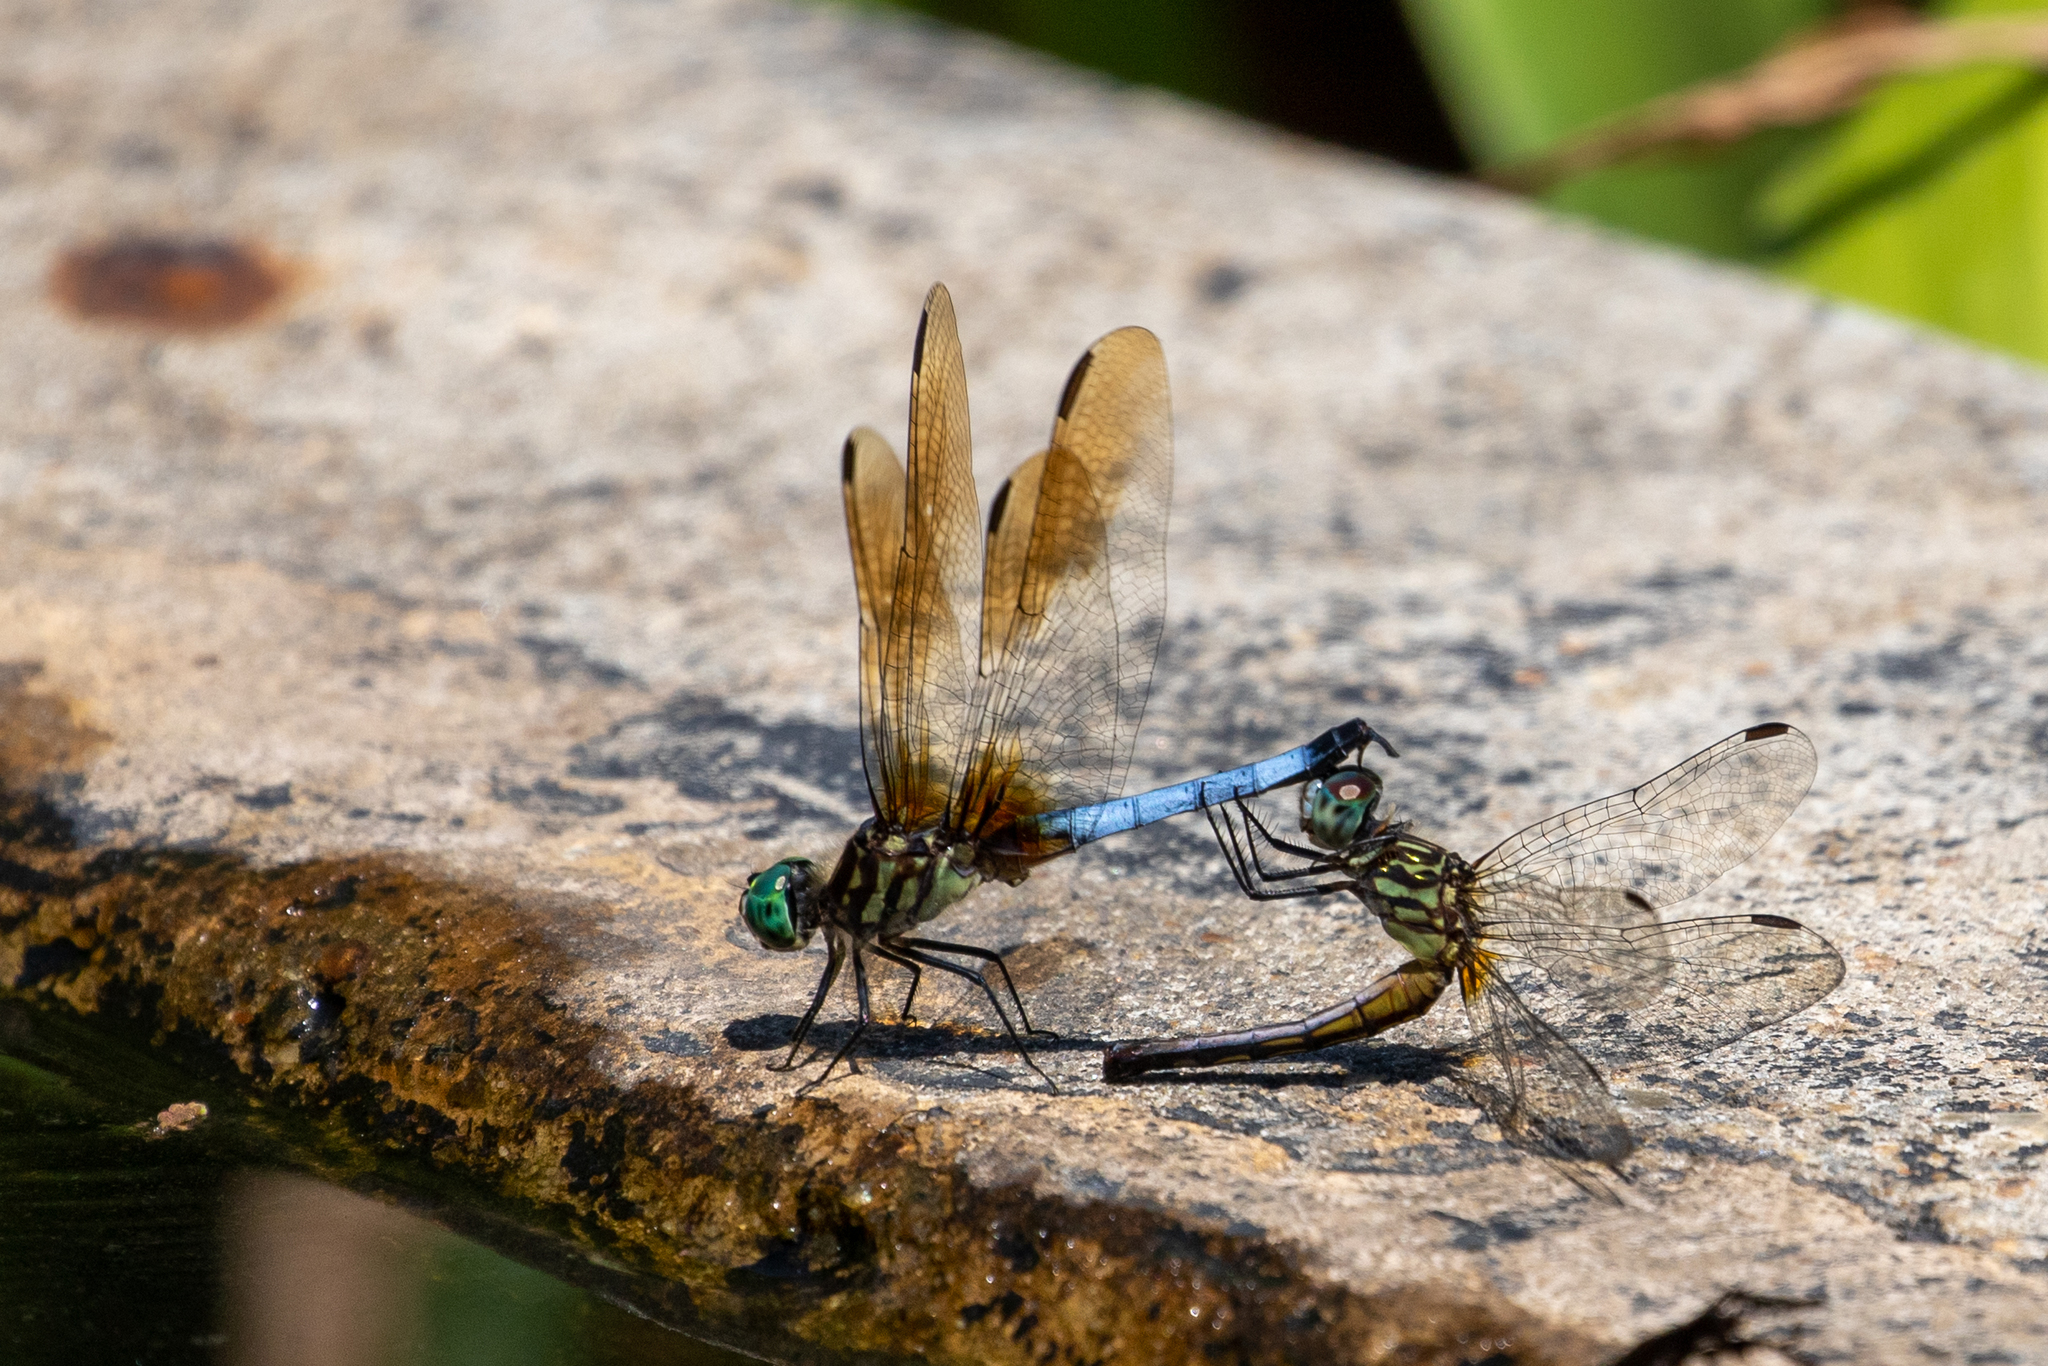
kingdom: Animalia
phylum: Arthropoda
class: Insecta
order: Odonata
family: Libellulidae
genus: Pachydiplax
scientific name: Pachydiplax longipennis
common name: Blue dasher
